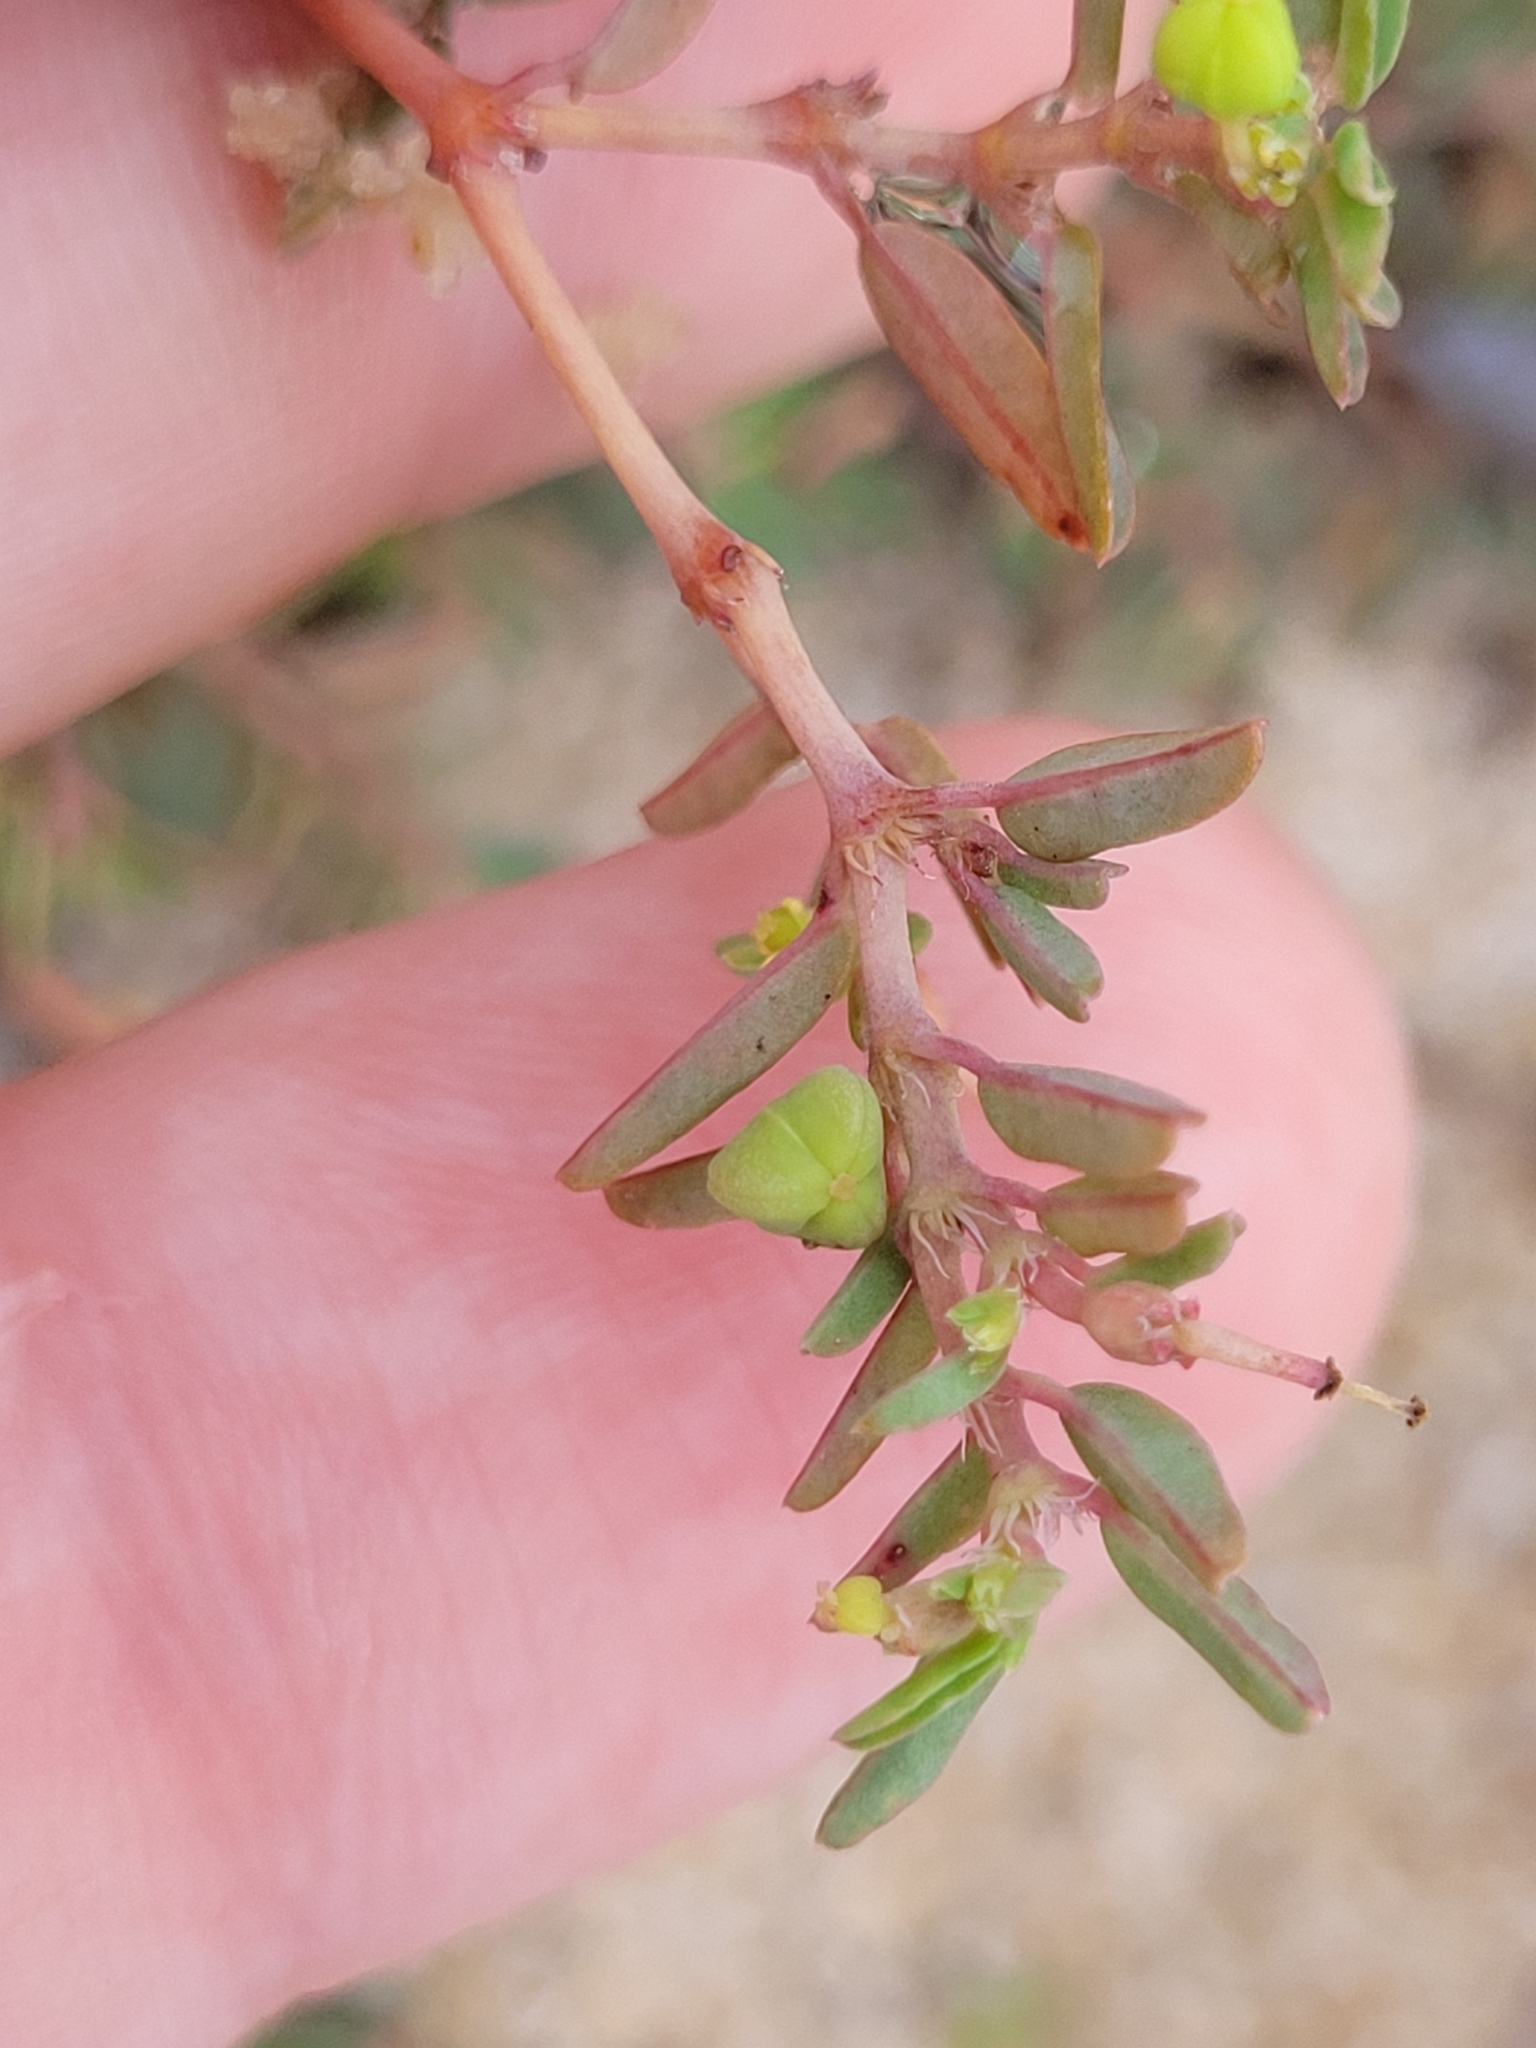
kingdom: Plantae
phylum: Tracheophyta
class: Magnoliopsida
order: Malpighiales
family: Euphorbiaceae
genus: Euphorbia
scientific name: Euphorbia bombensis
